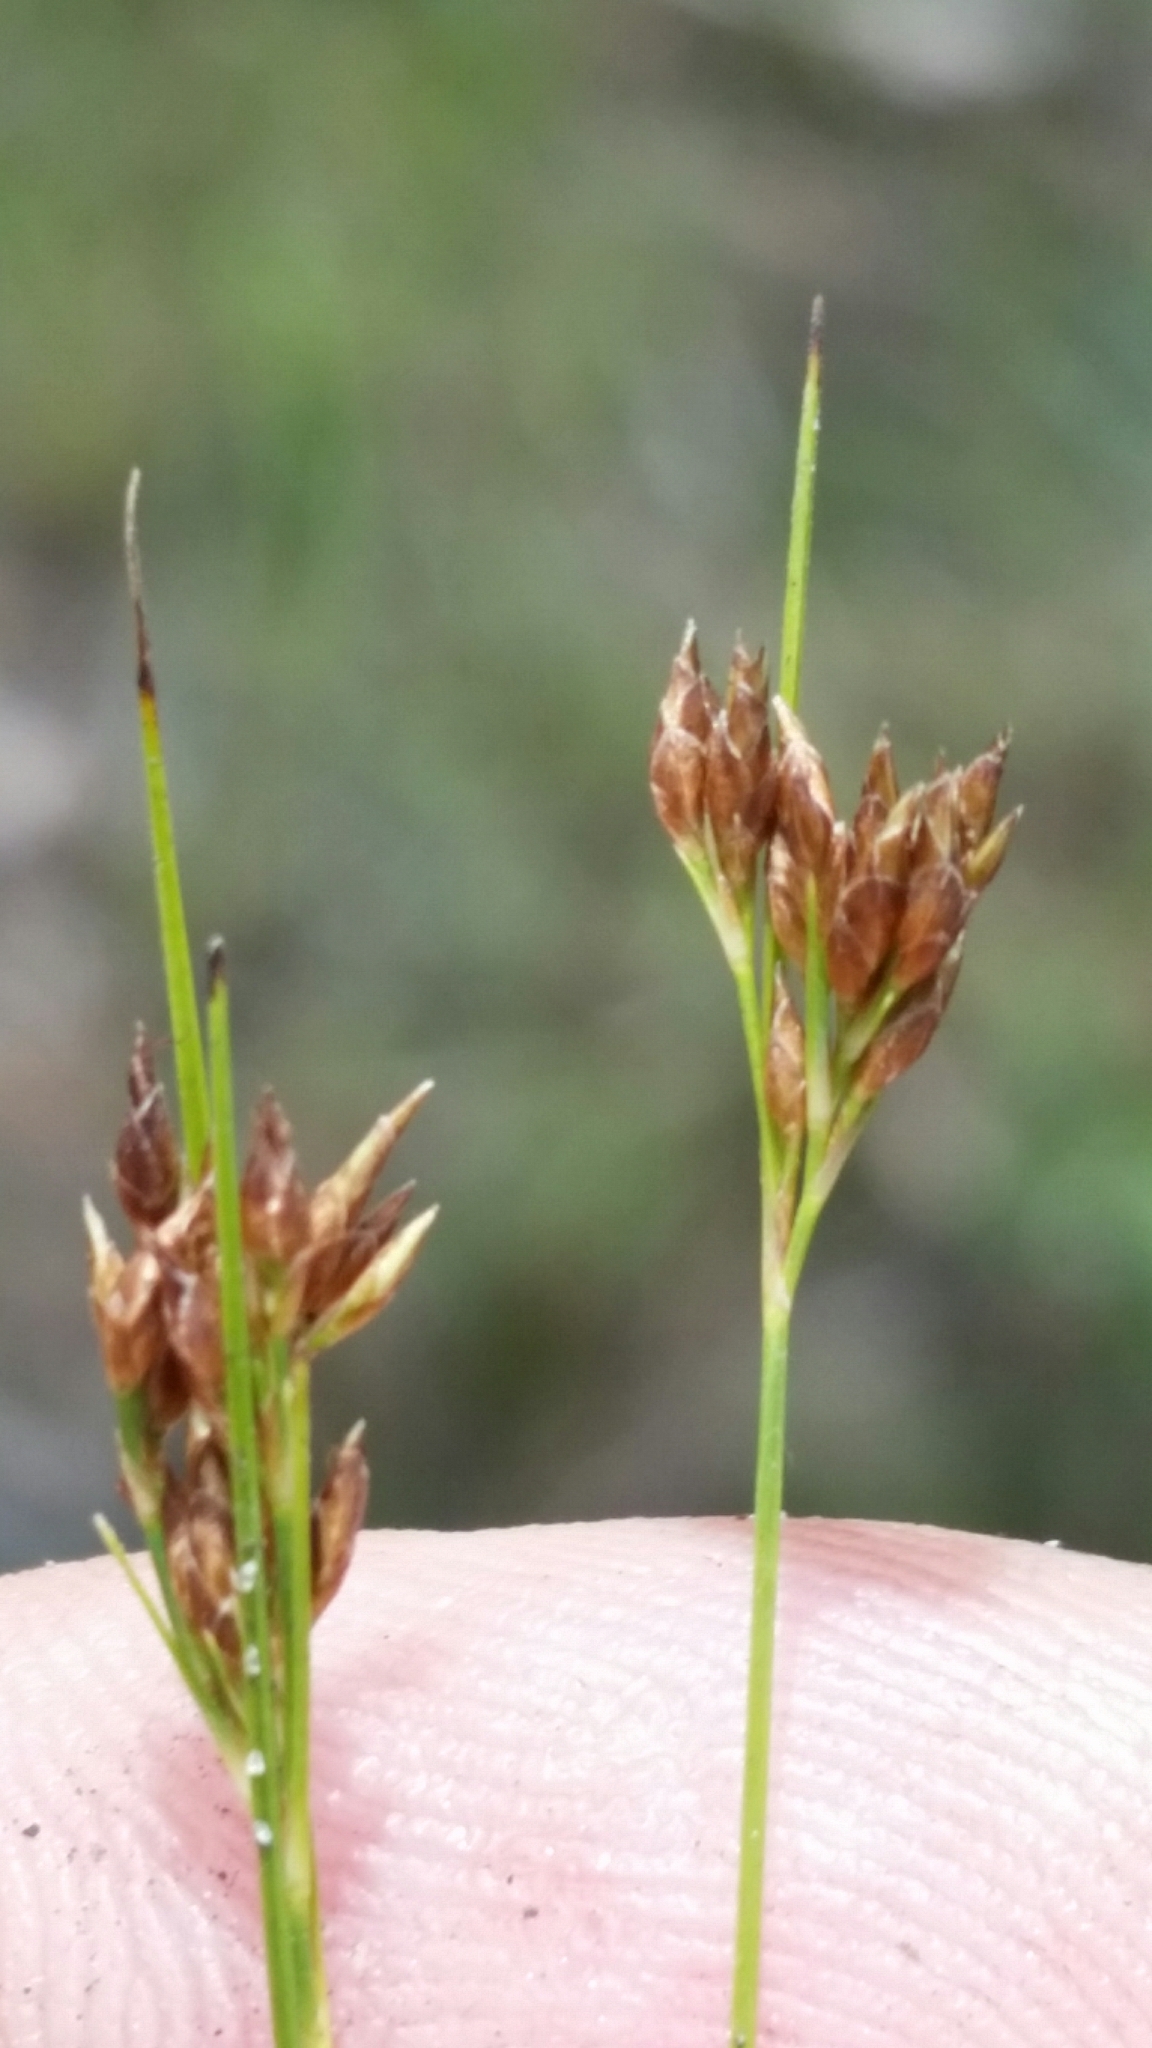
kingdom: Plantae
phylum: Tracheophyta
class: Liliopsida
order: Poales
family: Cyperaceae
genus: Rhynchospora
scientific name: Rhynchospora divergens
